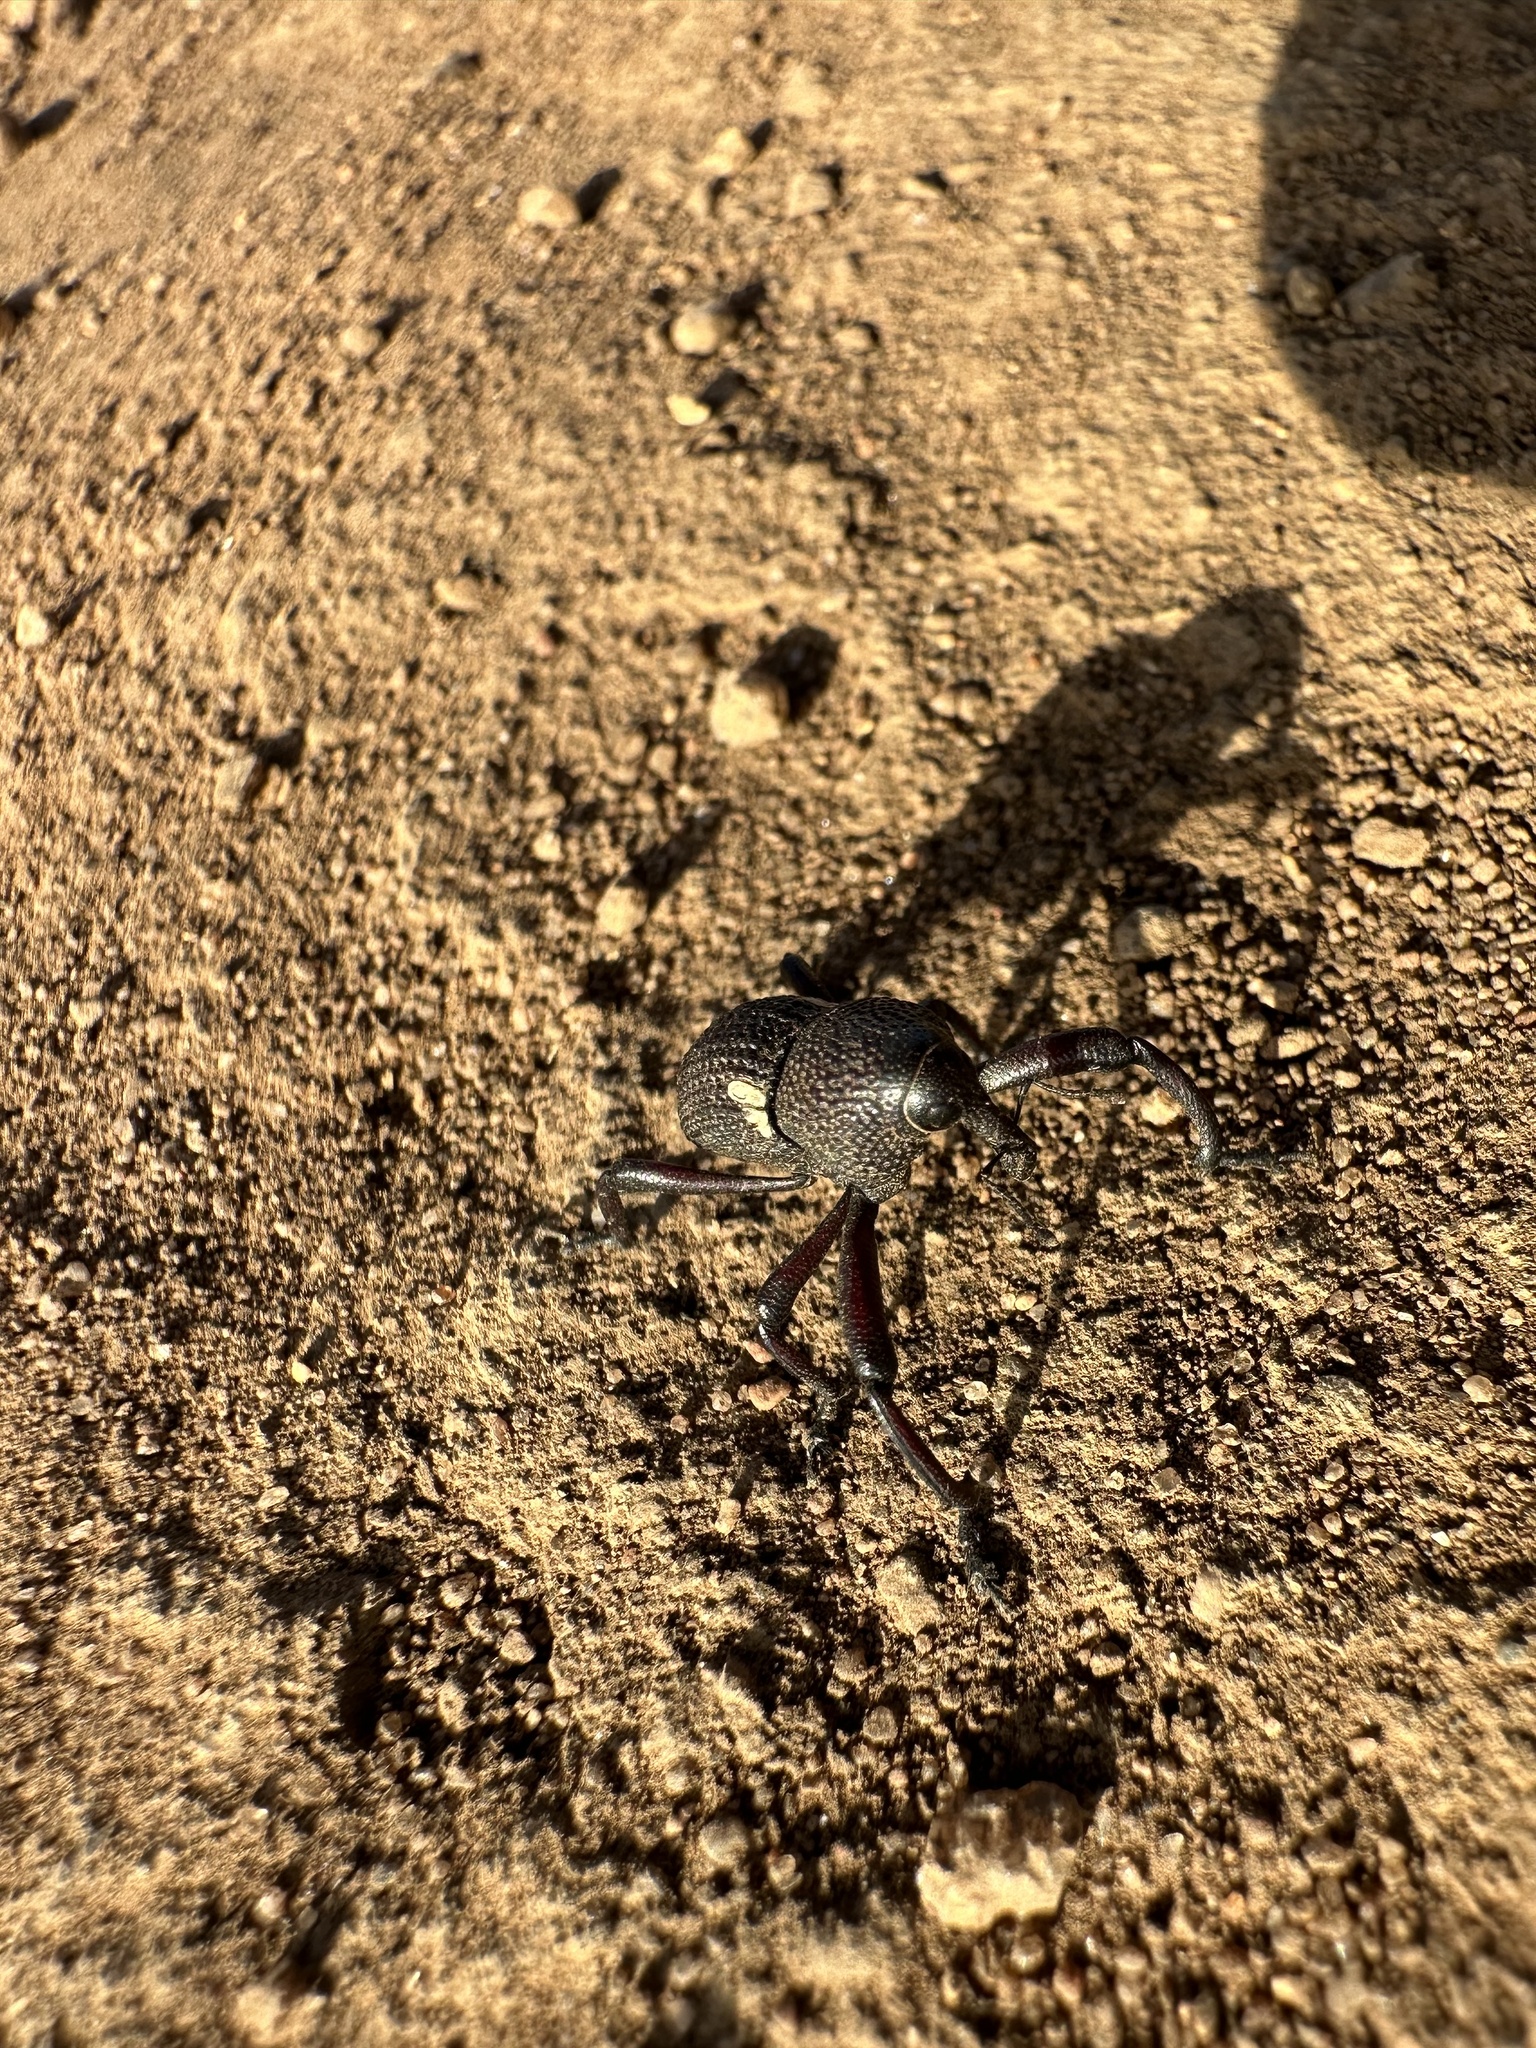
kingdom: Animalia
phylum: Arthropoda
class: Insecta
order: Coleoptera
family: Curculionidae
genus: Rhyephenes
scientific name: Rhyephenes gayi
